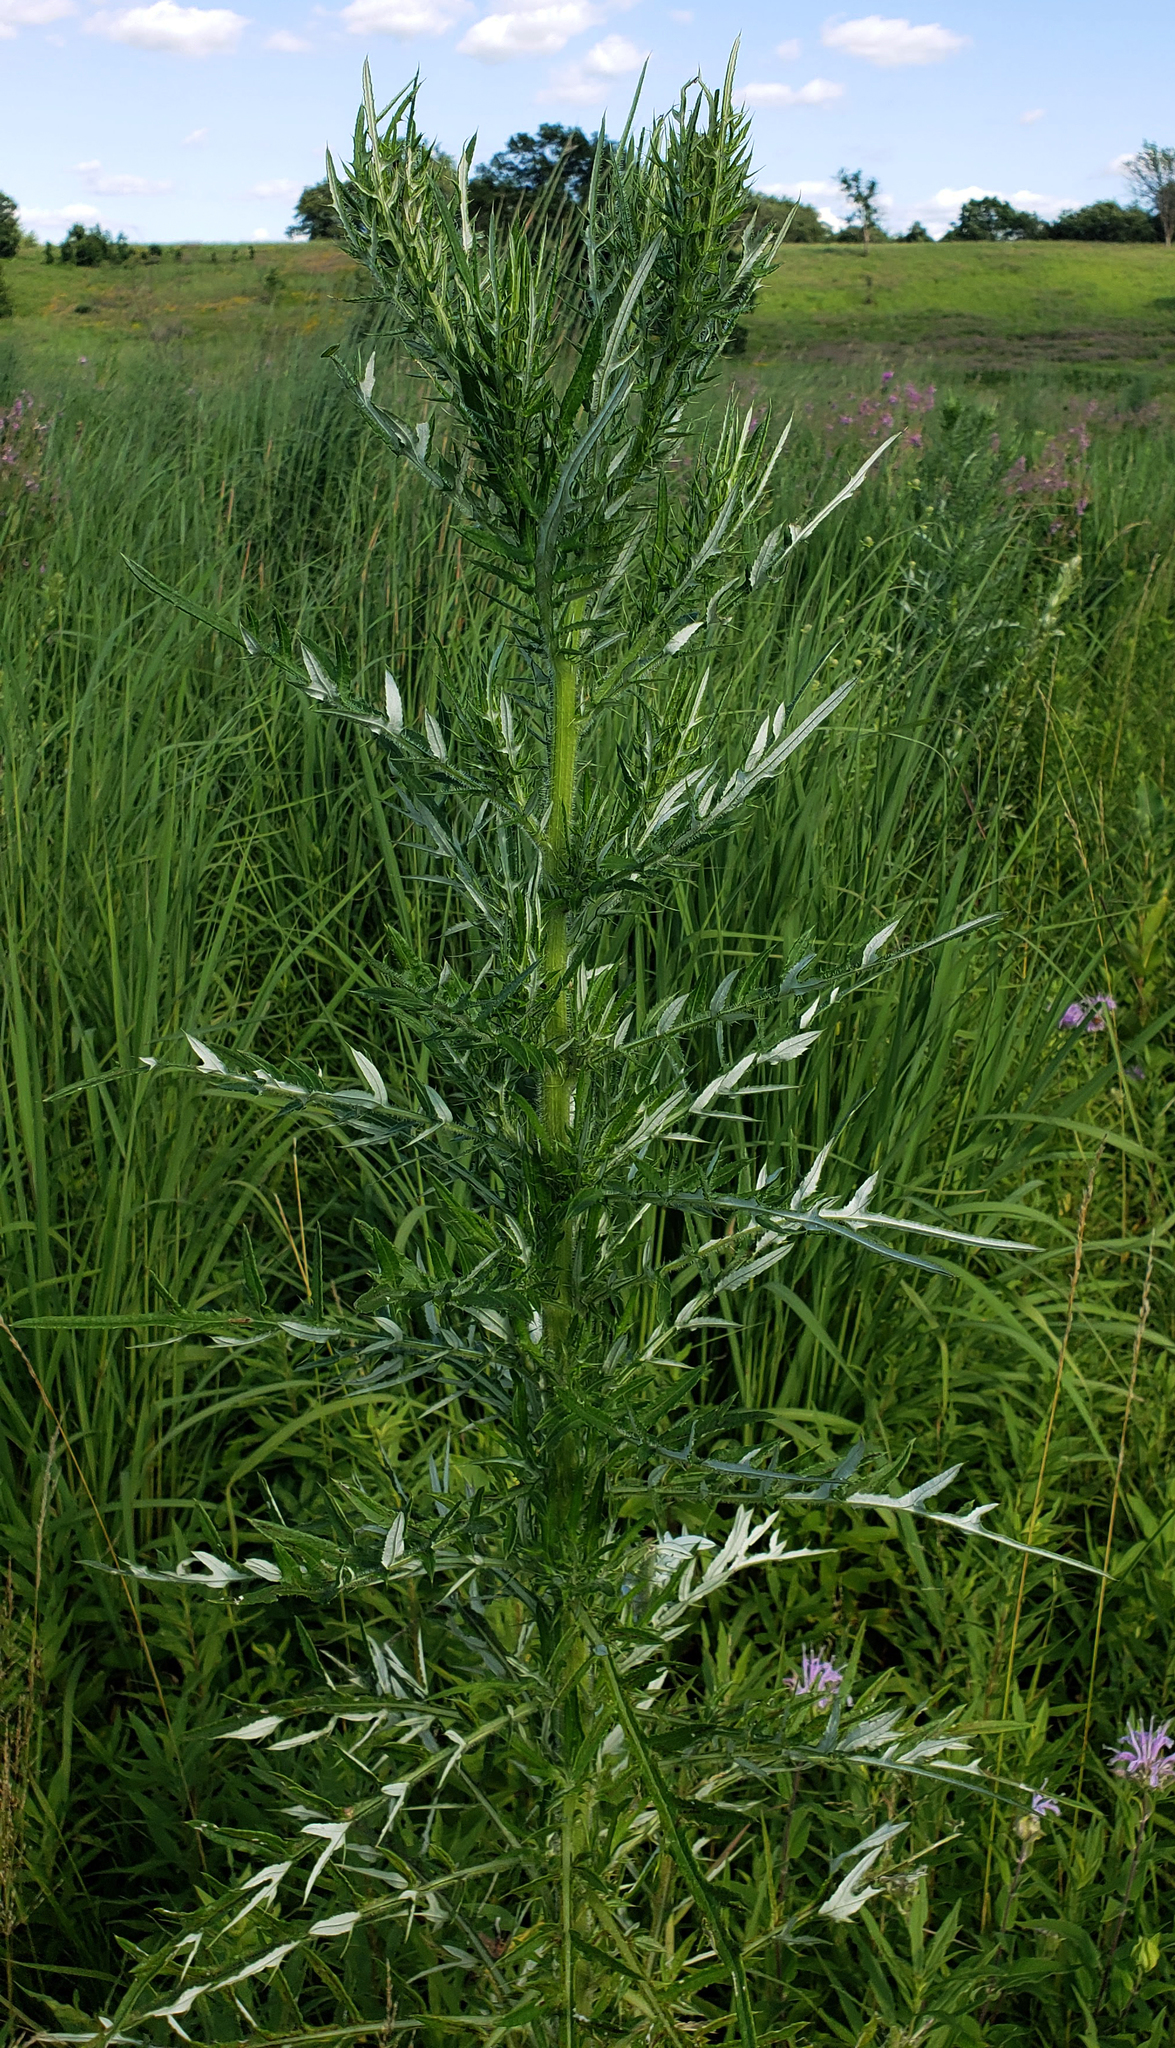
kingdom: Plantae
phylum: Tracheophyta
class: Magnoliopsida
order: Asterales
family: Asteraceae
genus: Cirsium
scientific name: Cirsium discolor
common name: Field thistle
